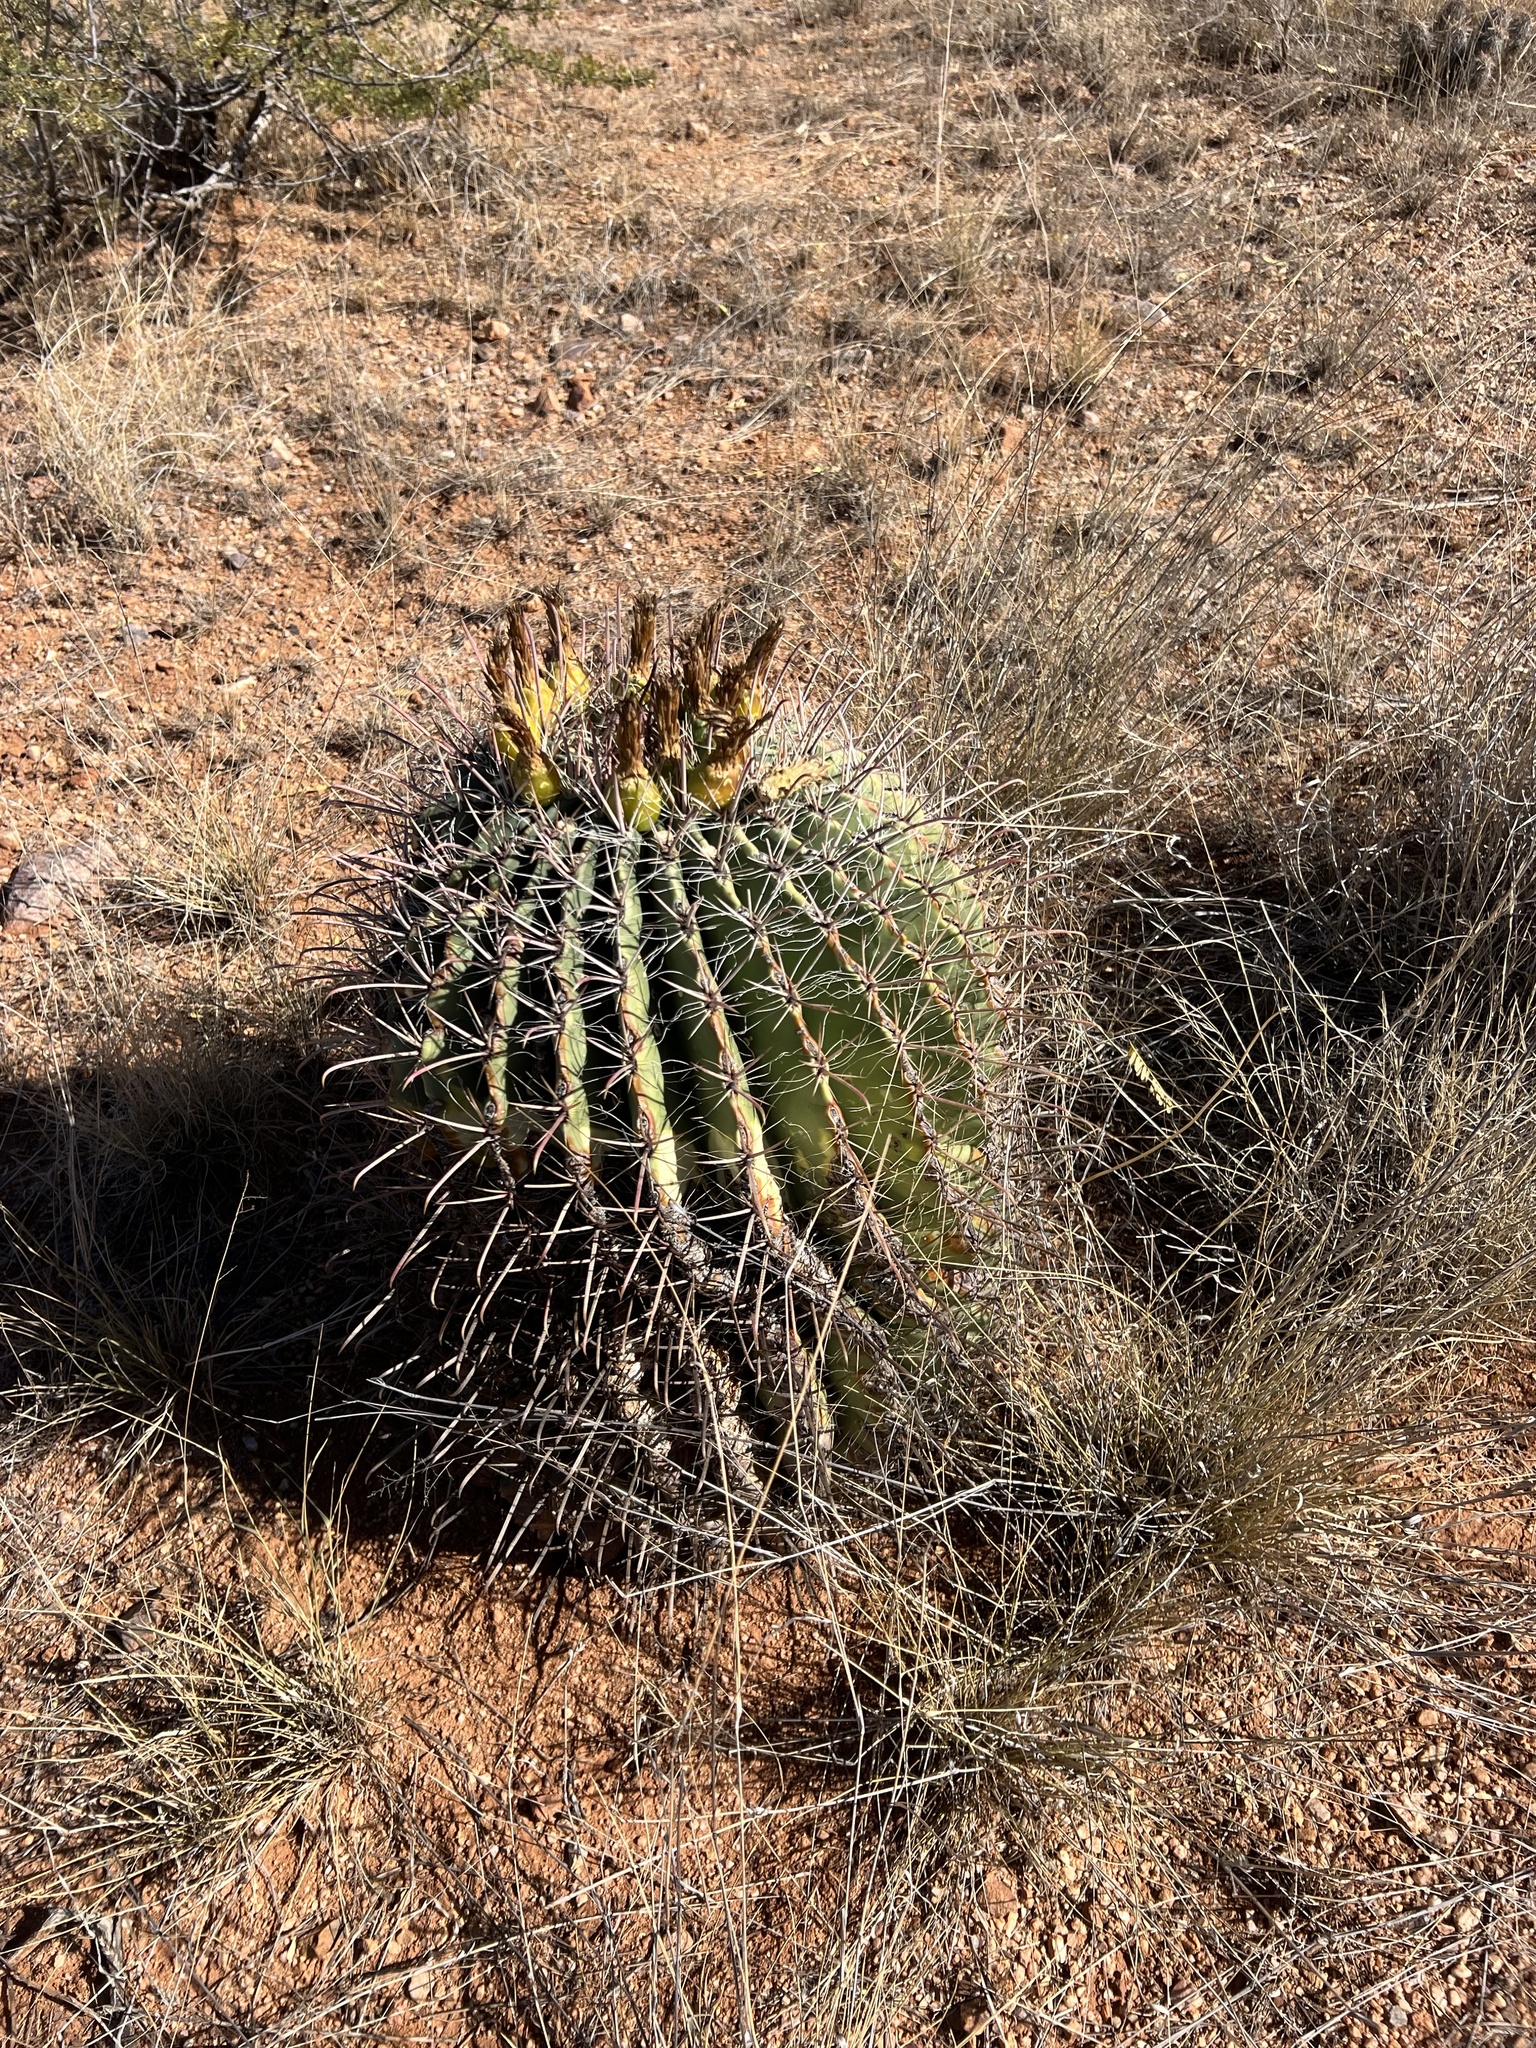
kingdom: Plantae
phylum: Tracheophyta
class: Magnoliopsida
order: Caryophyllales
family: Cactaceae
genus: Ferocactus
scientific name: Ferocactus wislizeni
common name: Candy barrel cactus
